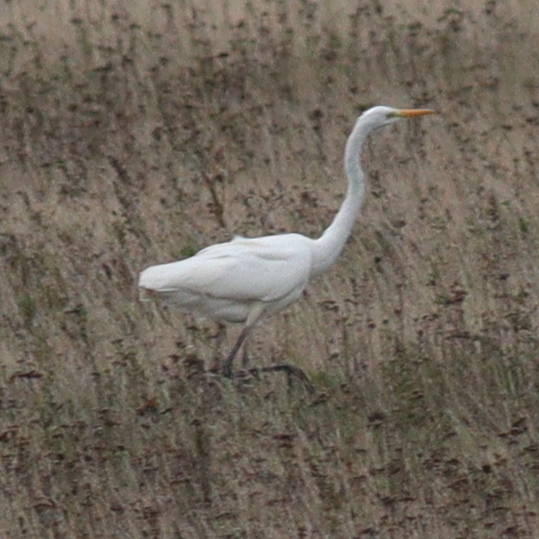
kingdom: Animalia
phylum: Chordata
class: Aves
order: Pelecaniformes
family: Ardeidae
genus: Ardea
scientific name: Ardea alba
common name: Great egret
